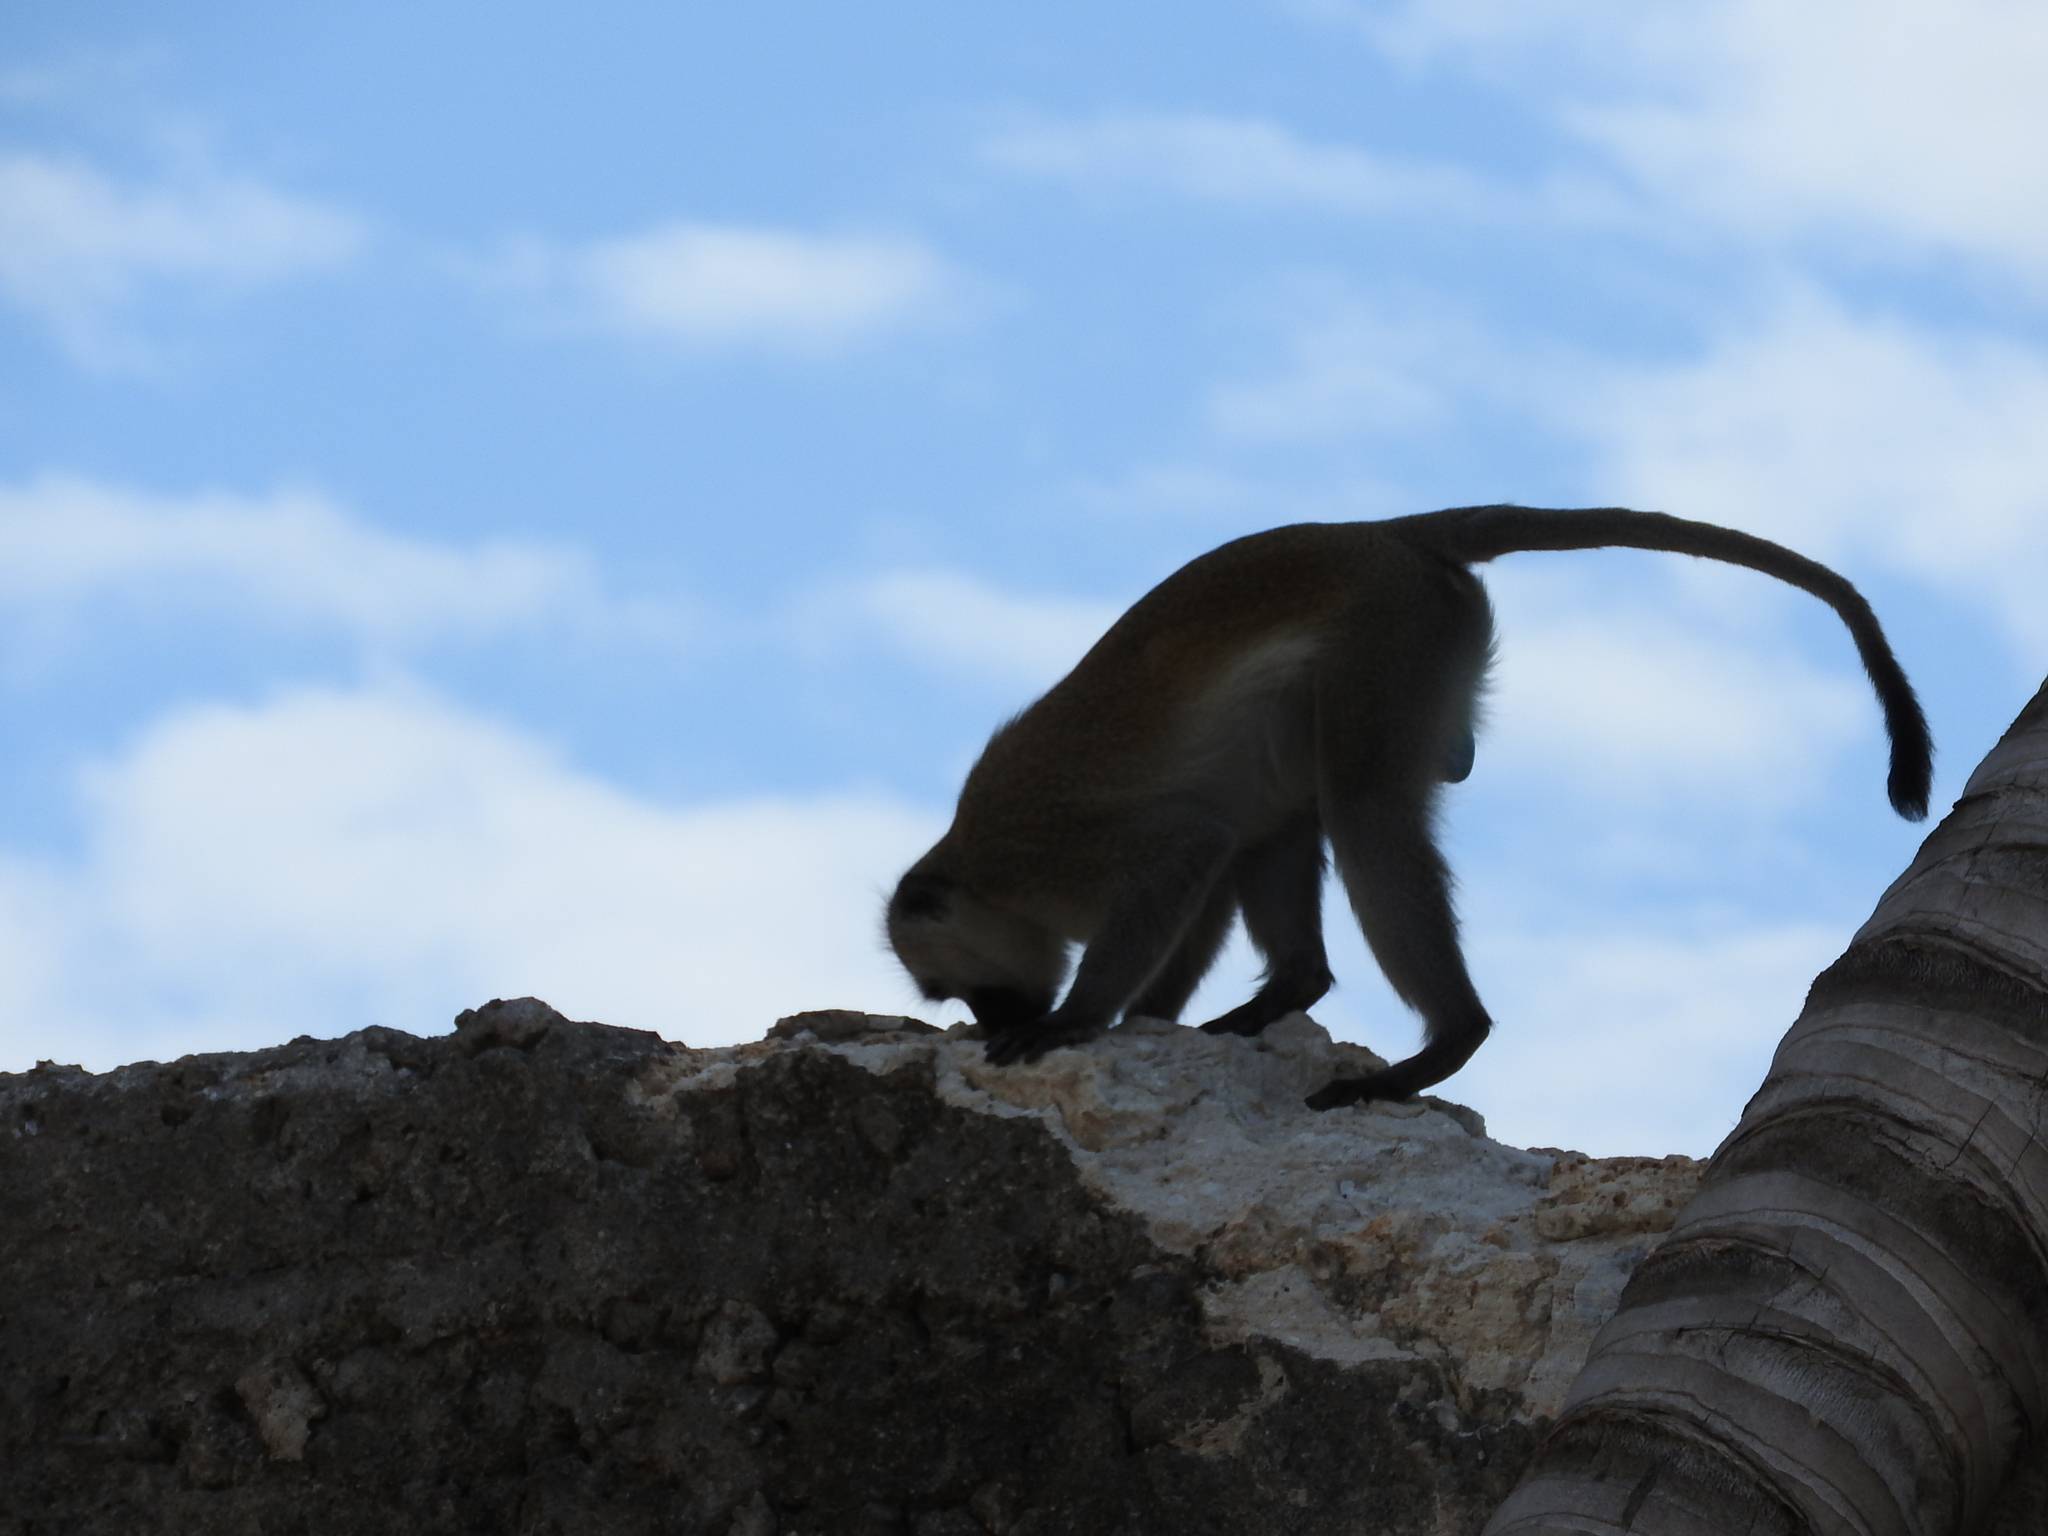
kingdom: Animalia
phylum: Chordata
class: Mammalia
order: Primates
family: Cercopithecidae
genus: Chlorocebus
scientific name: Chlorocebus pygerythrus
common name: Vervet monkey
